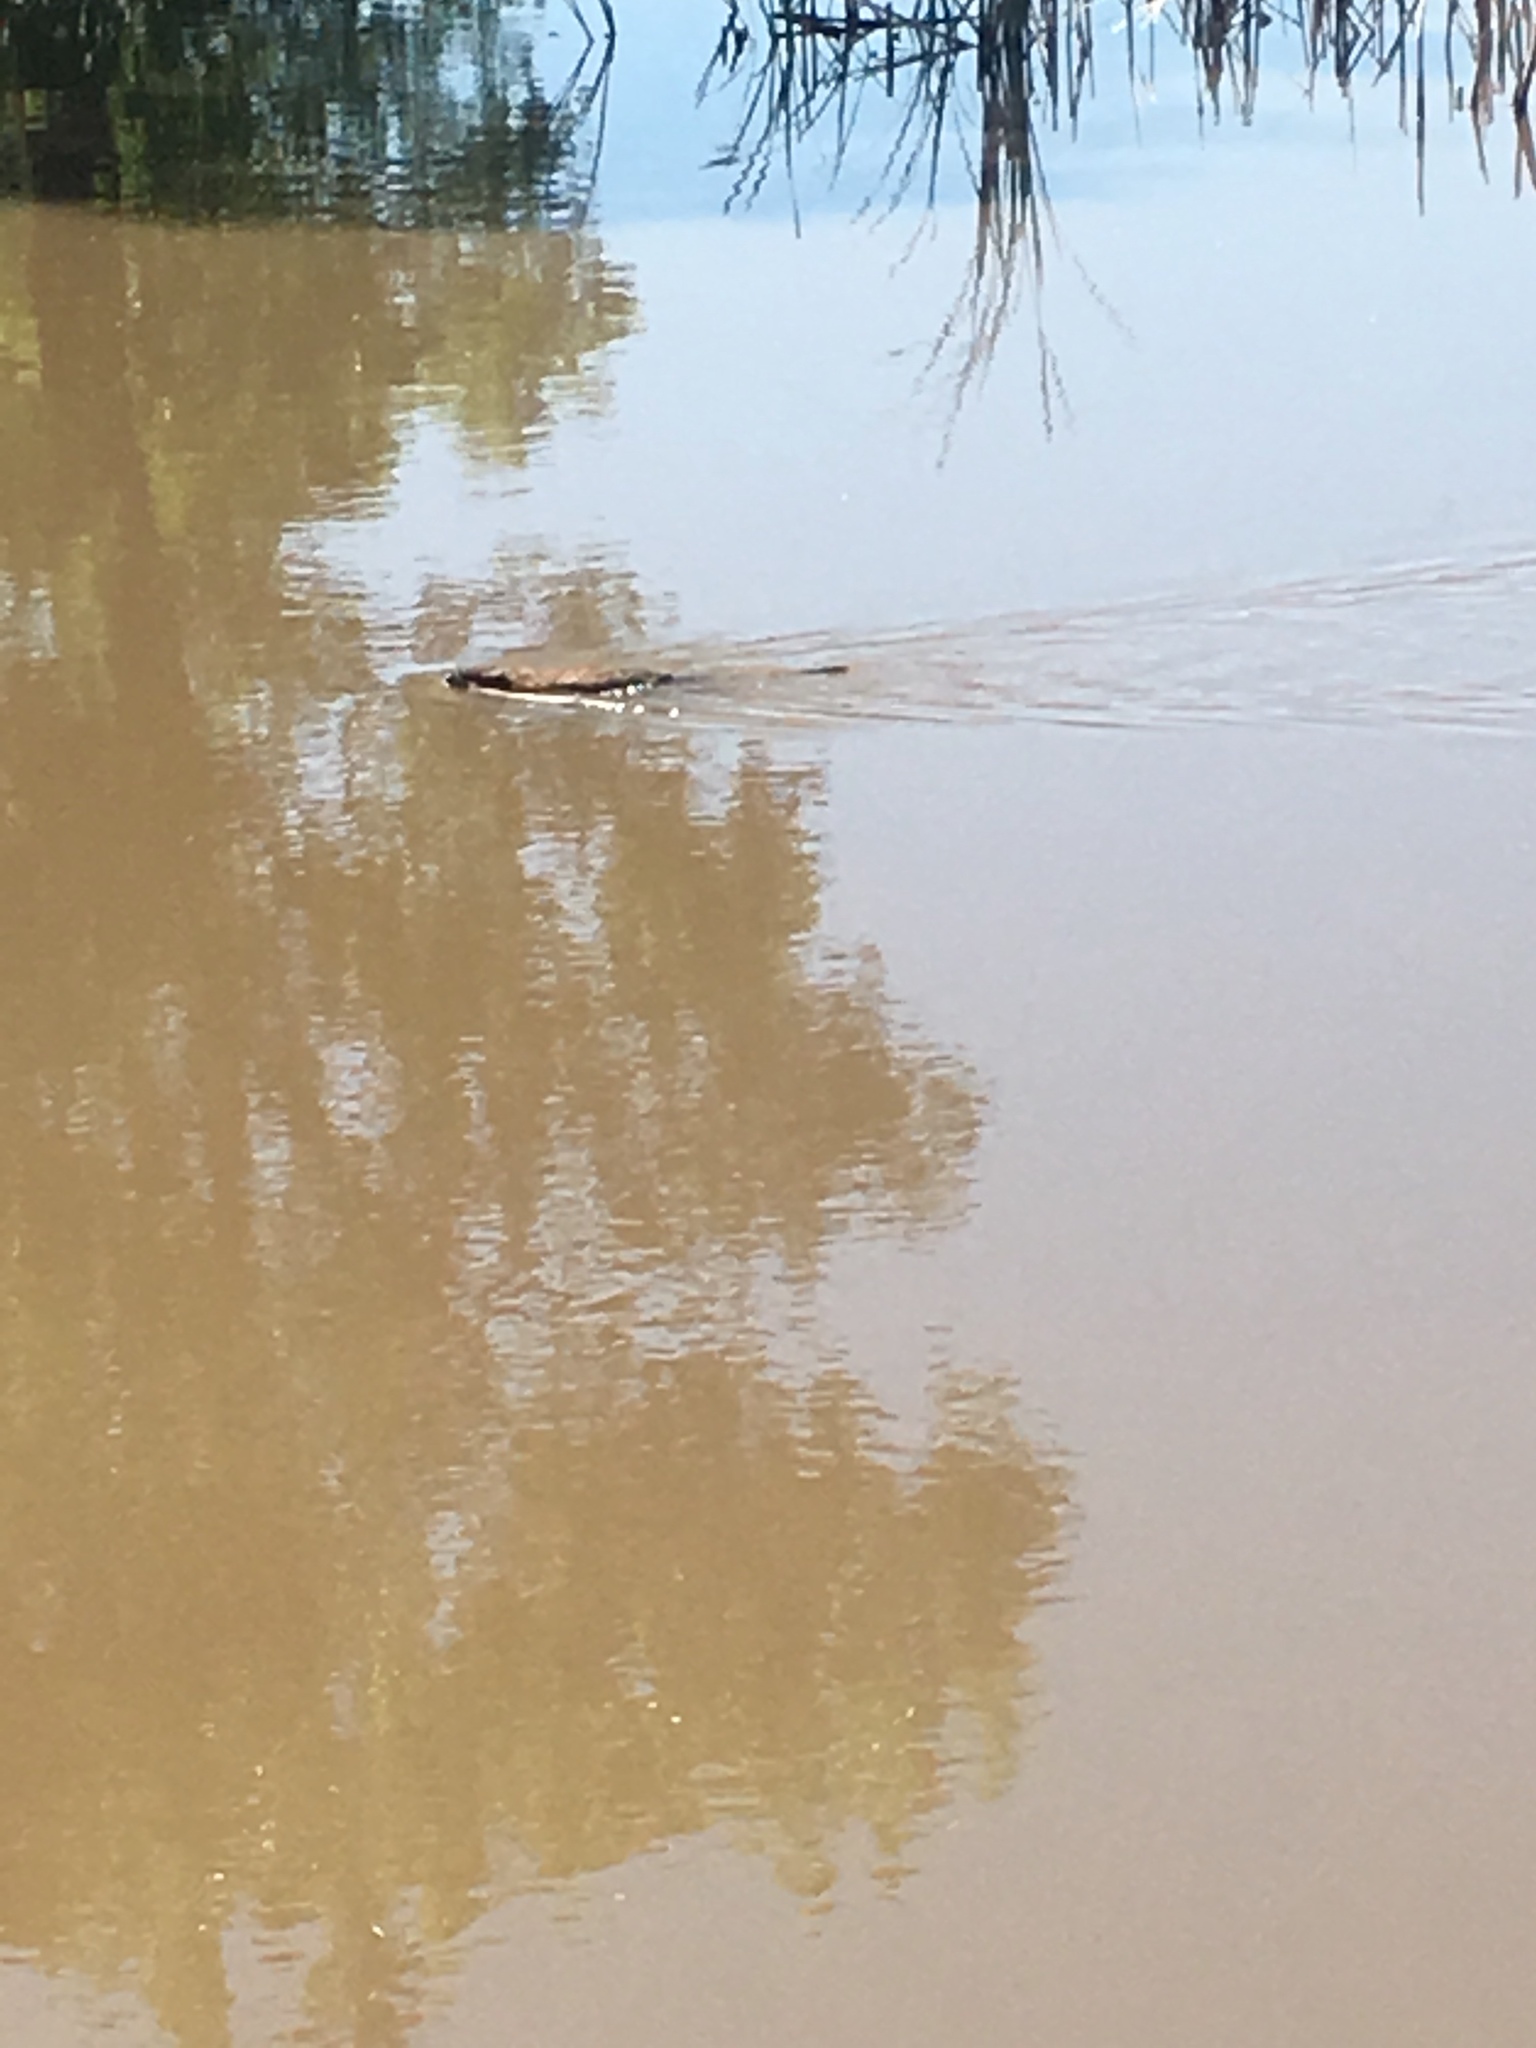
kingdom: Animalia
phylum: Chordata
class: Mammalia
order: Rodentia
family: Cricetidae
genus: Ondatra
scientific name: Ondatra zibethicus
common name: Muskrat
